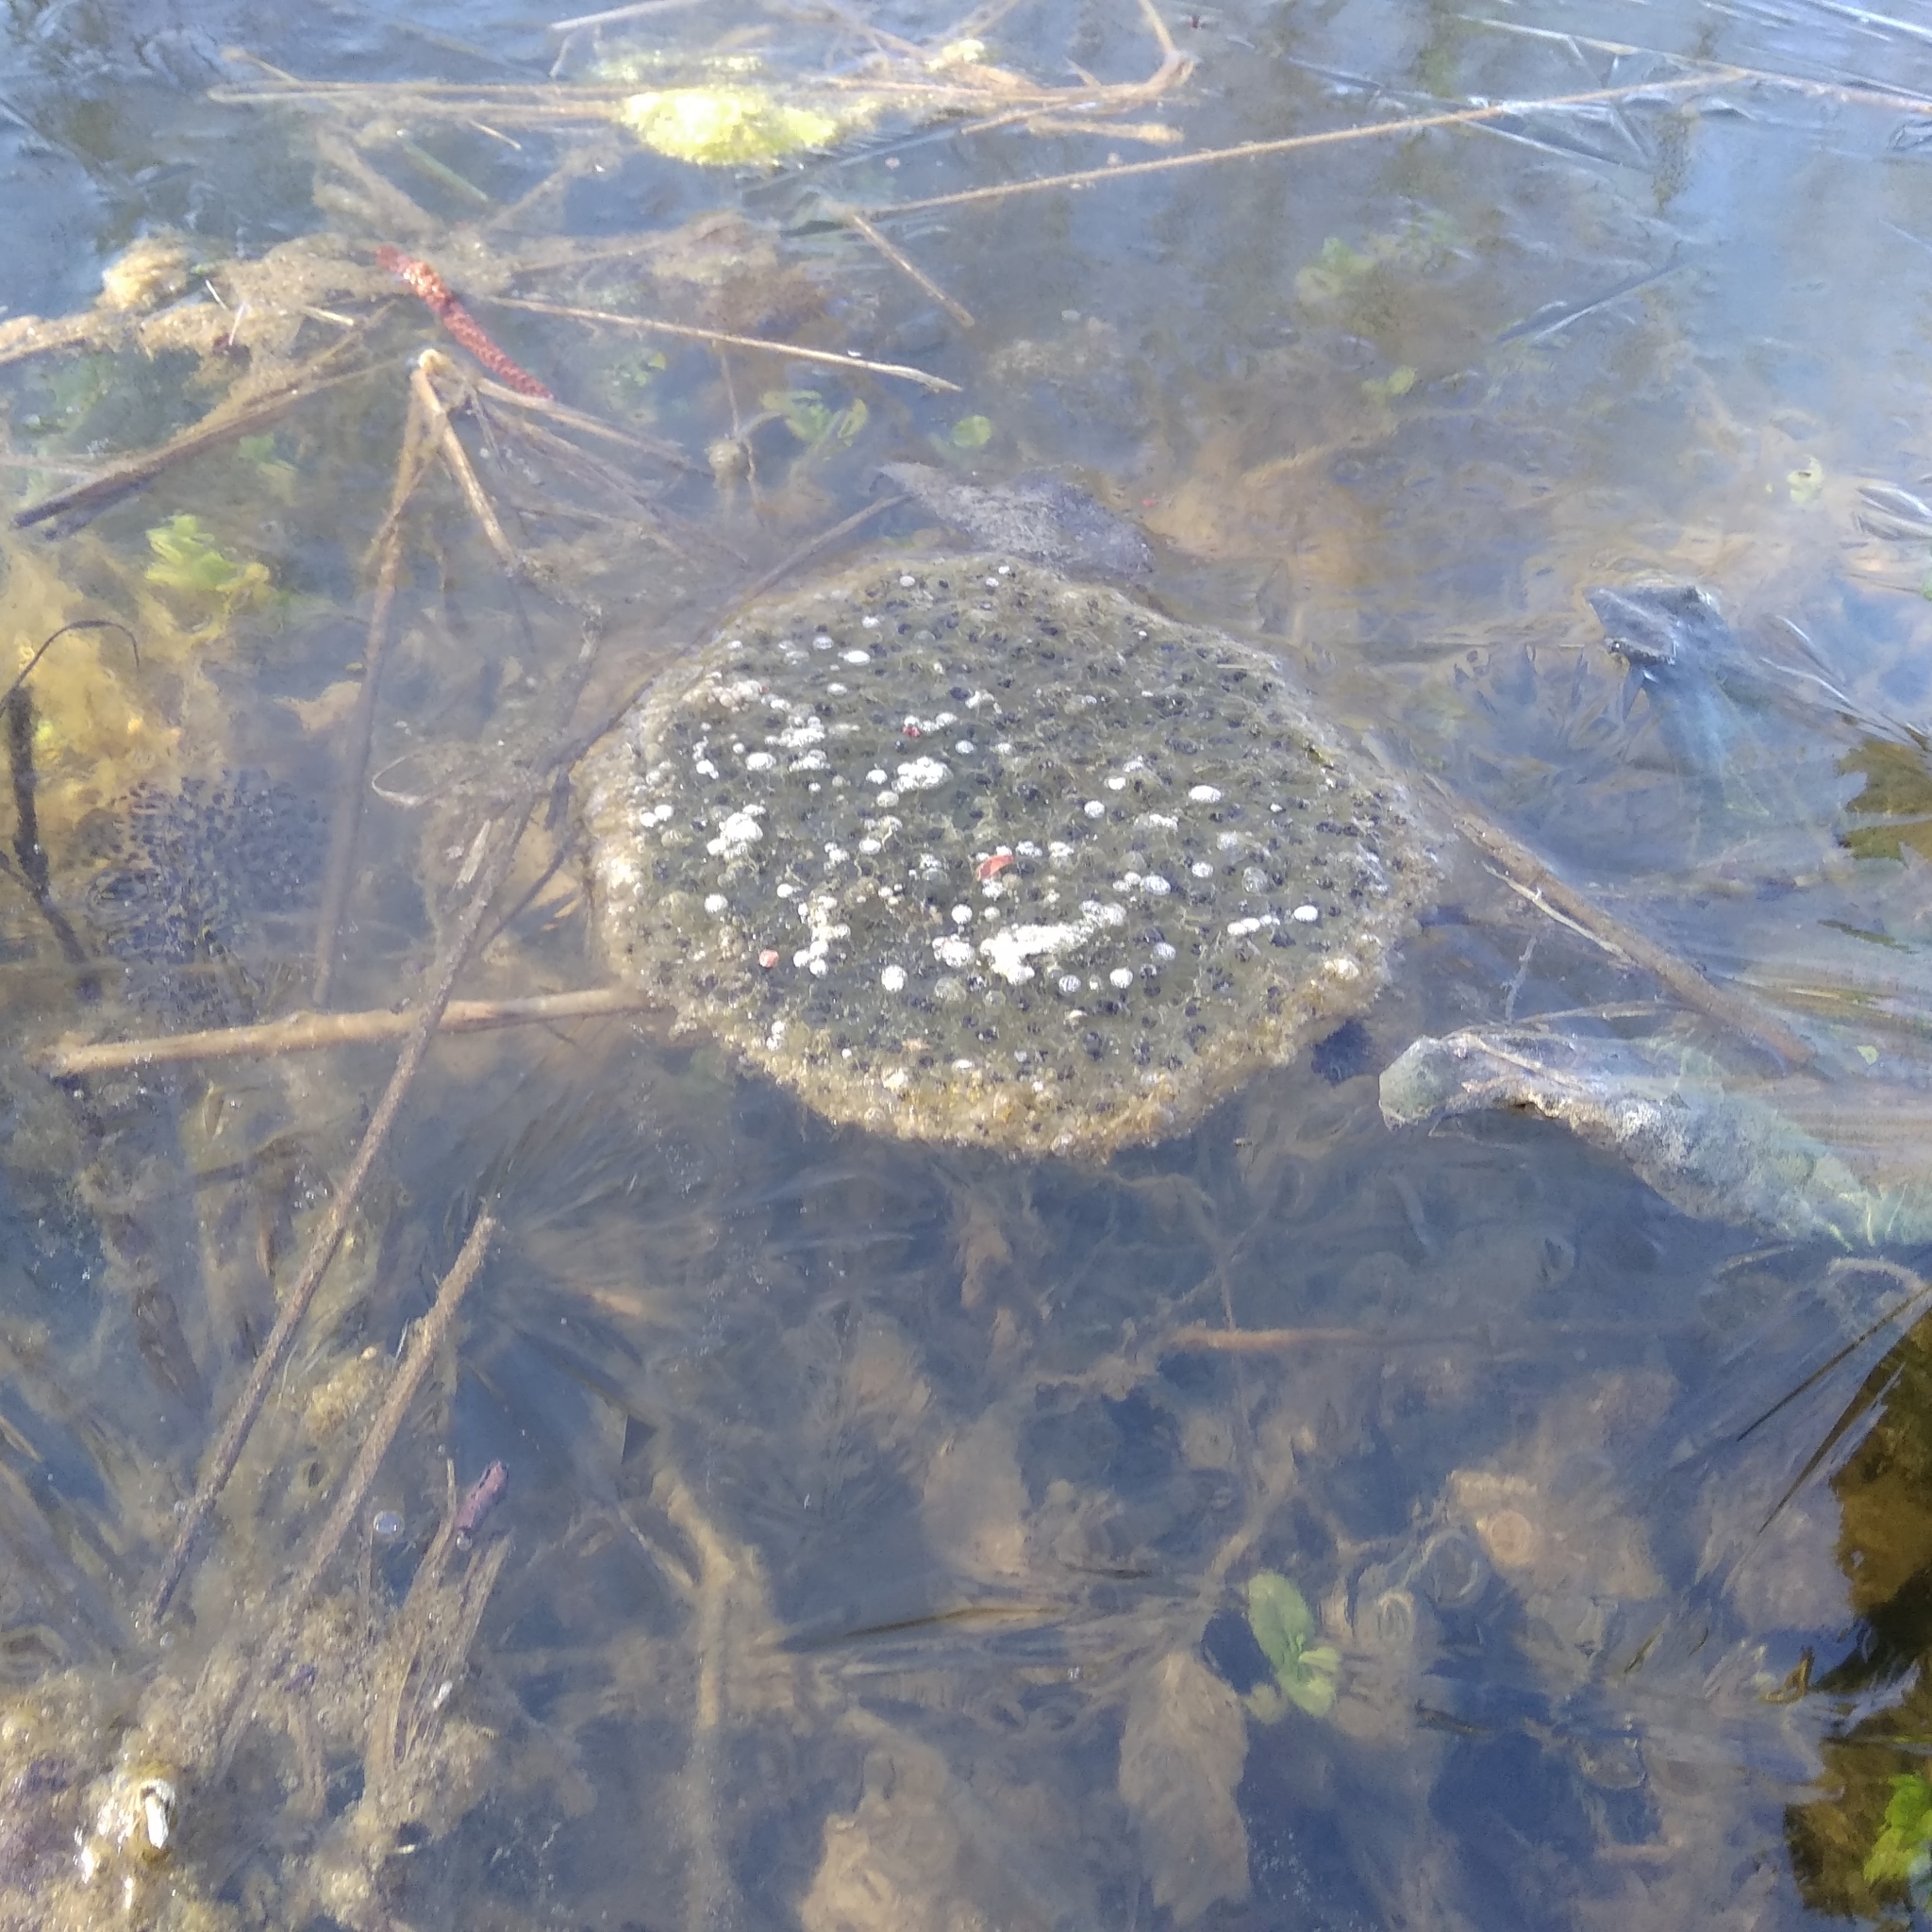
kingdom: Animalia
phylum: Chordata
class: Amphibia
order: Anura
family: Ranidae
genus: Rana
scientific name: Rana dalmatina
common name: Agile frog
